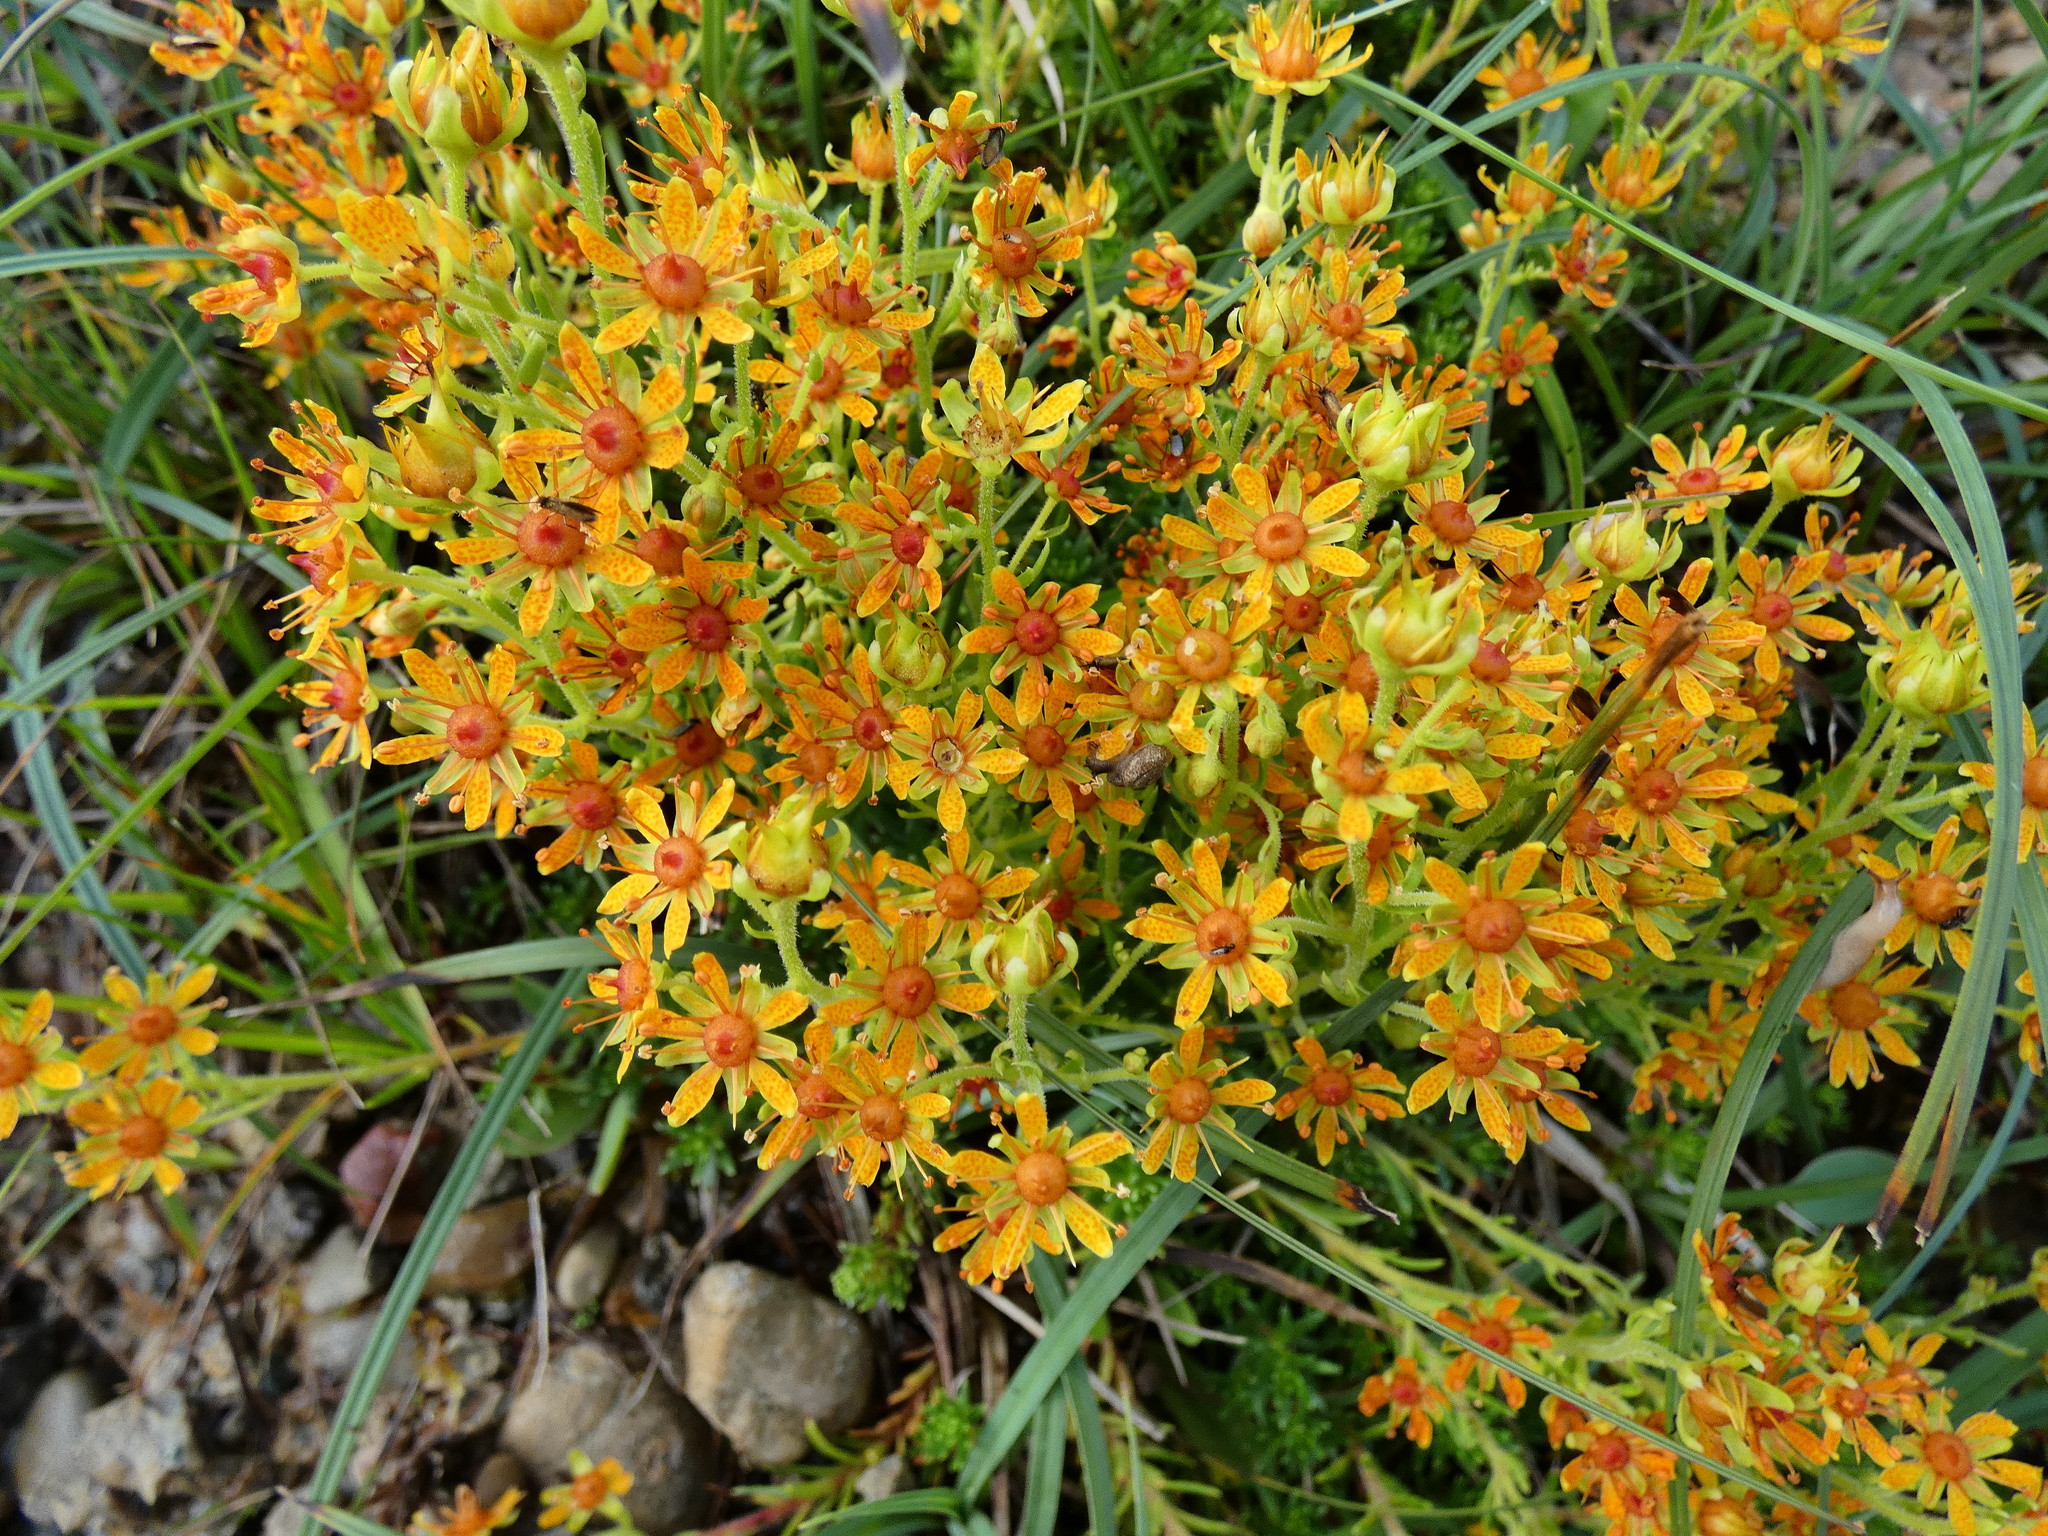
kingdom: Plantae
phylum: Tracheophyta
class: Magnoliopsida
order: Saxifragales
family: Saxifragaceae
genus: Saxifraga
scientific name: Saxifraga aizoides
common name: Yellow mountain saxifrage
